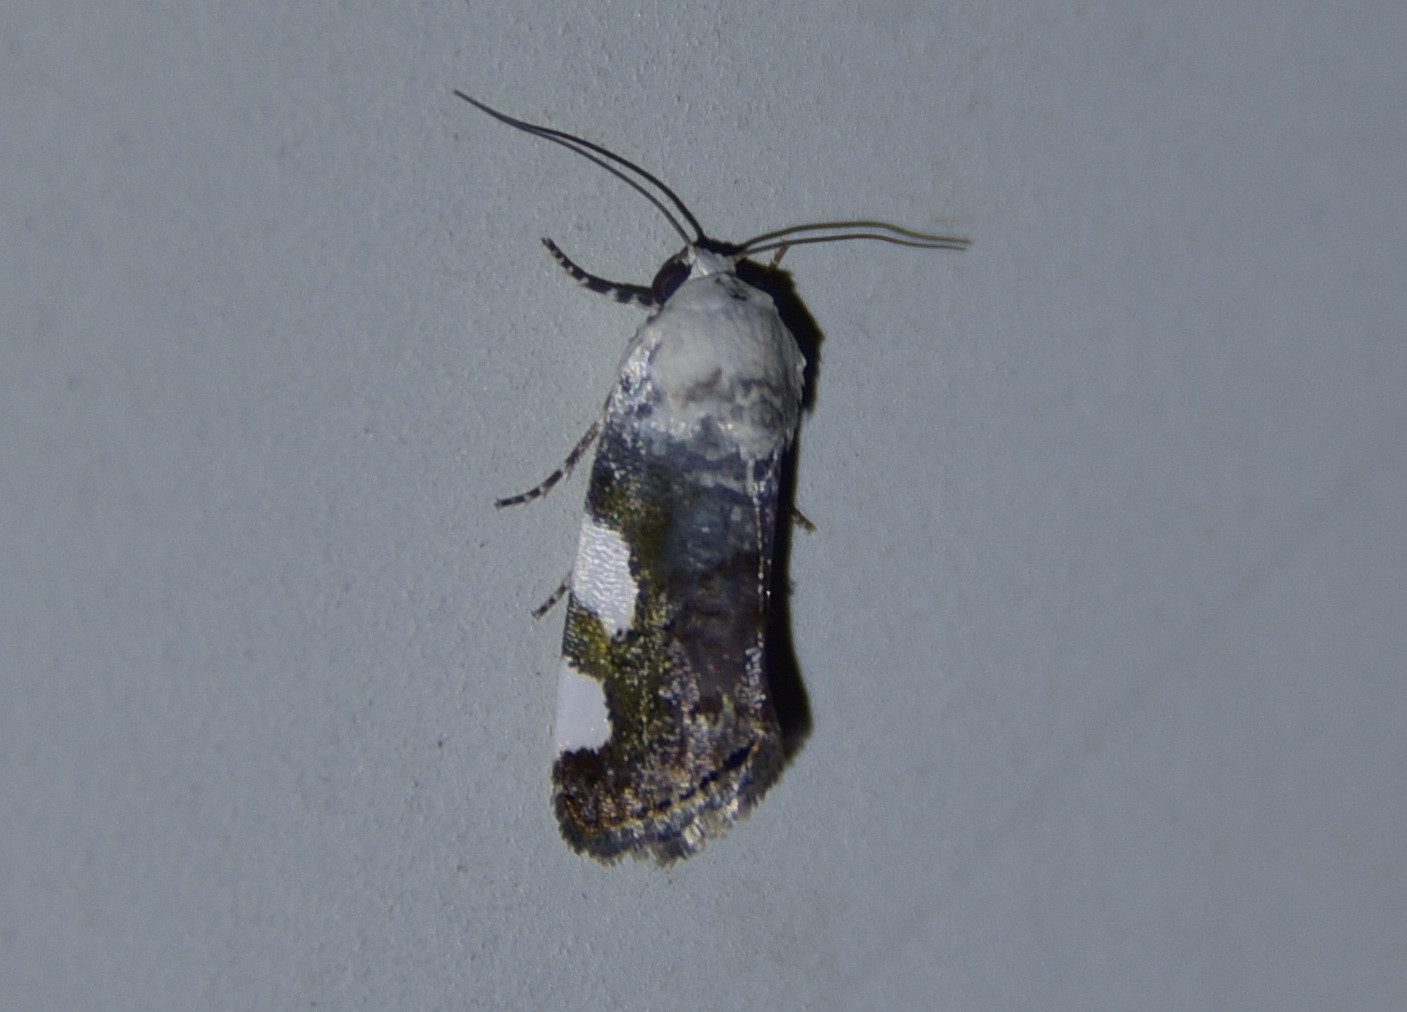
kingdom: Animalia
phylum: Arthropoda
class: Insecta
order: Lepidoptera
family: Noctuidae
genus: Acontia
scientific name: Acontia quadriplaga
